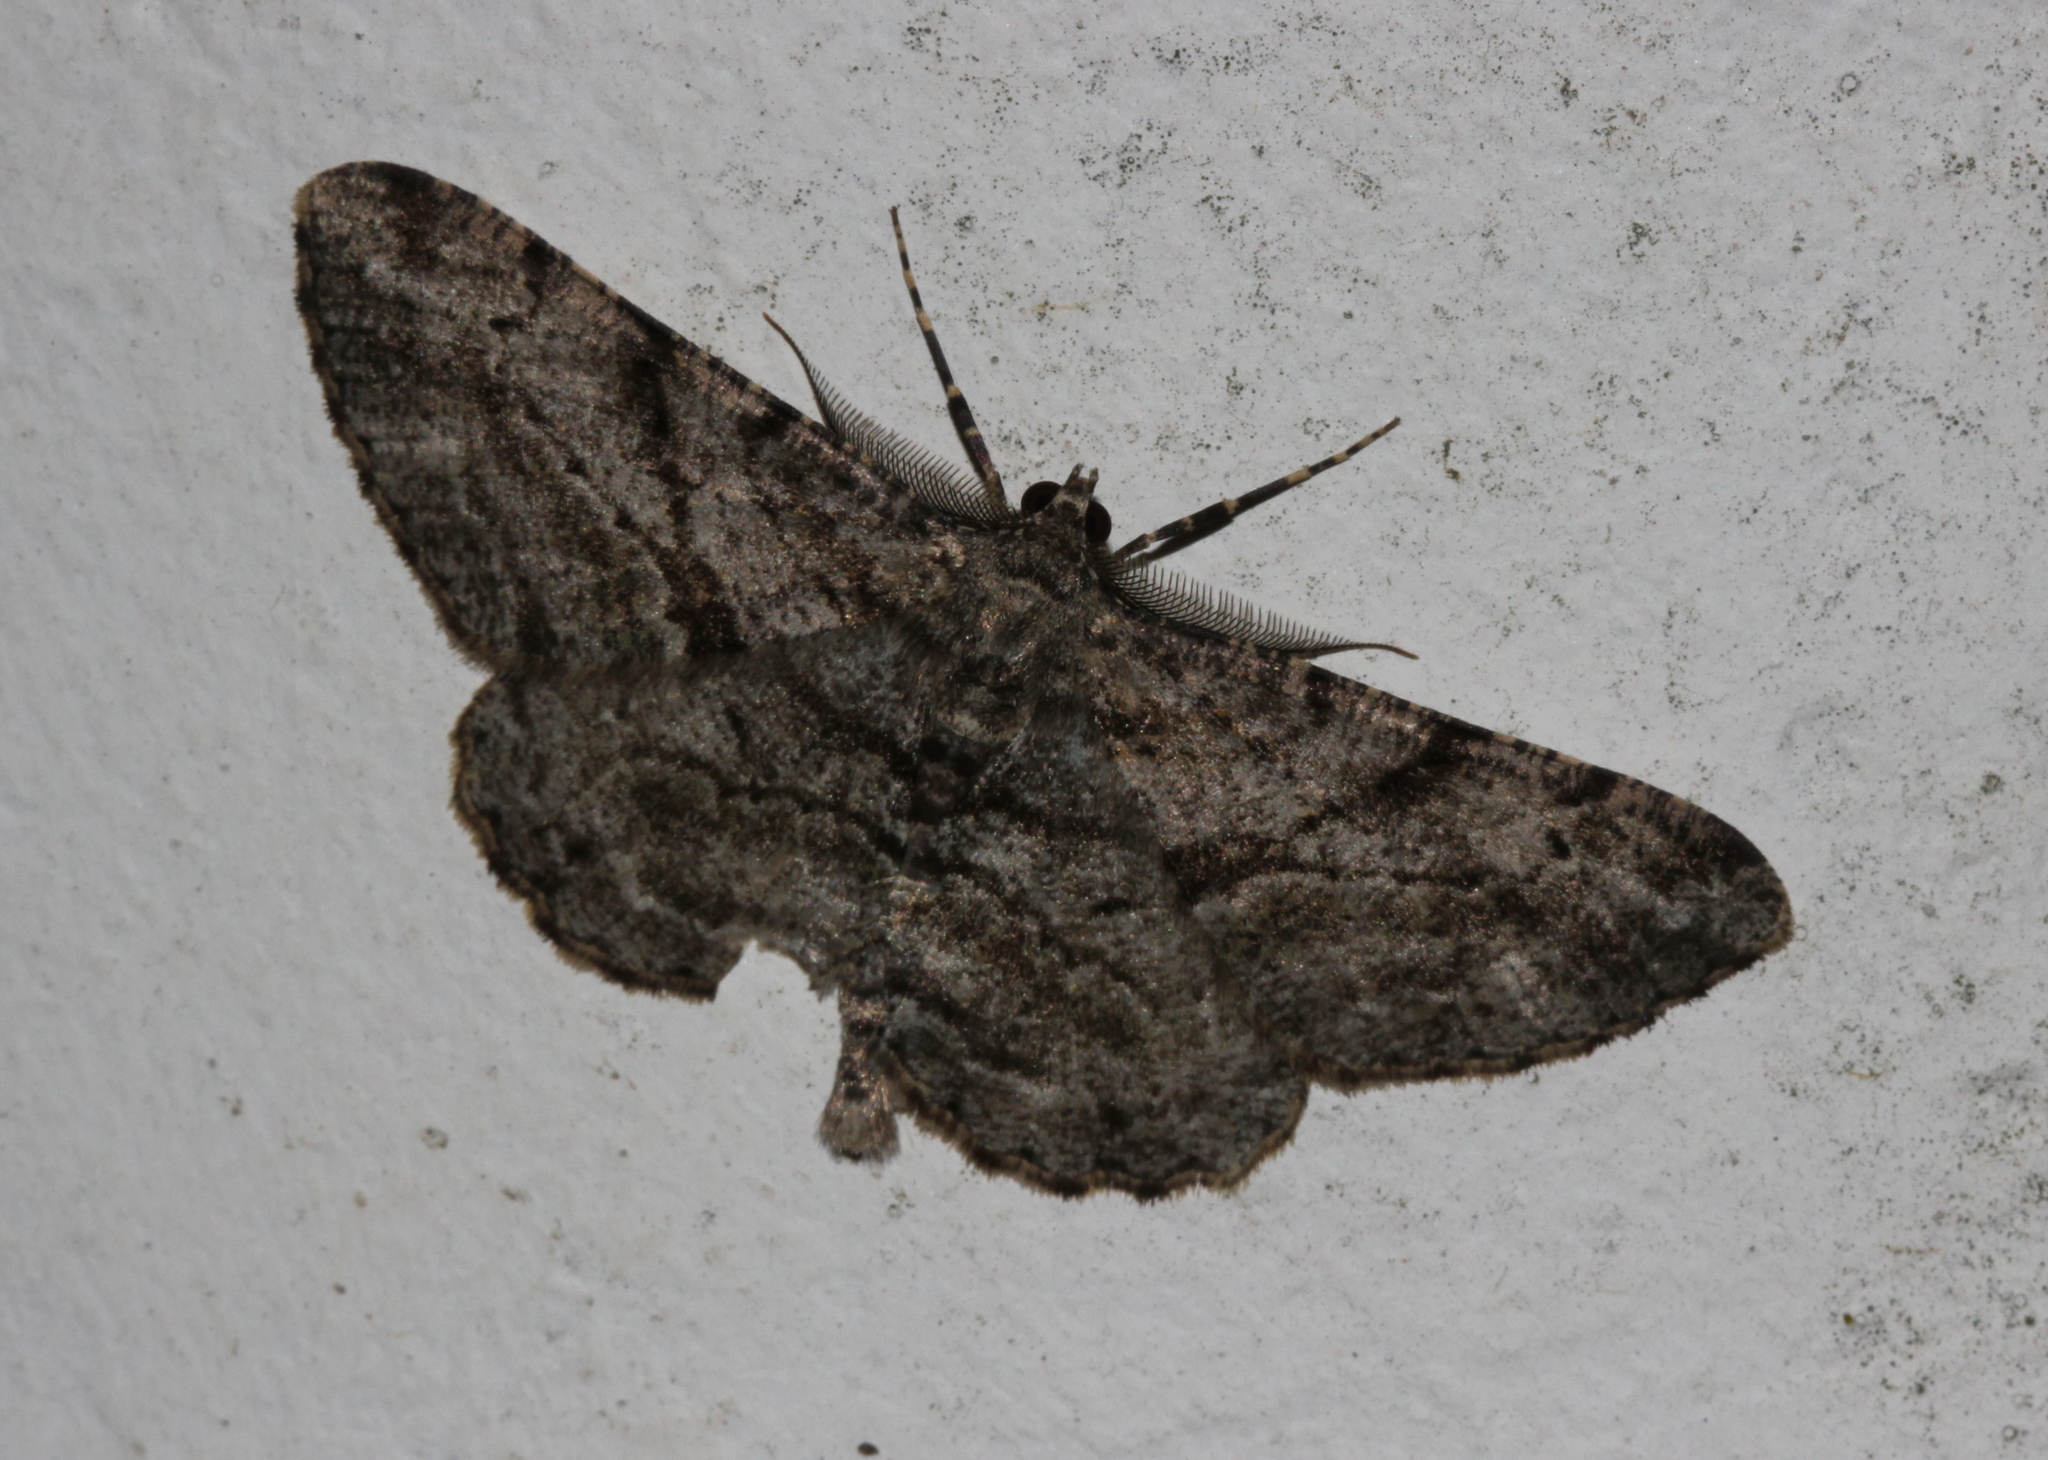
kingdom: Animalia
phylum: Arthropoda
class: Insecta
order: Lepidoptera
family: Geometridae
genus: Peribatodes
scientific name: Peribatodes rhomboidaria
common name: Willow beauty
